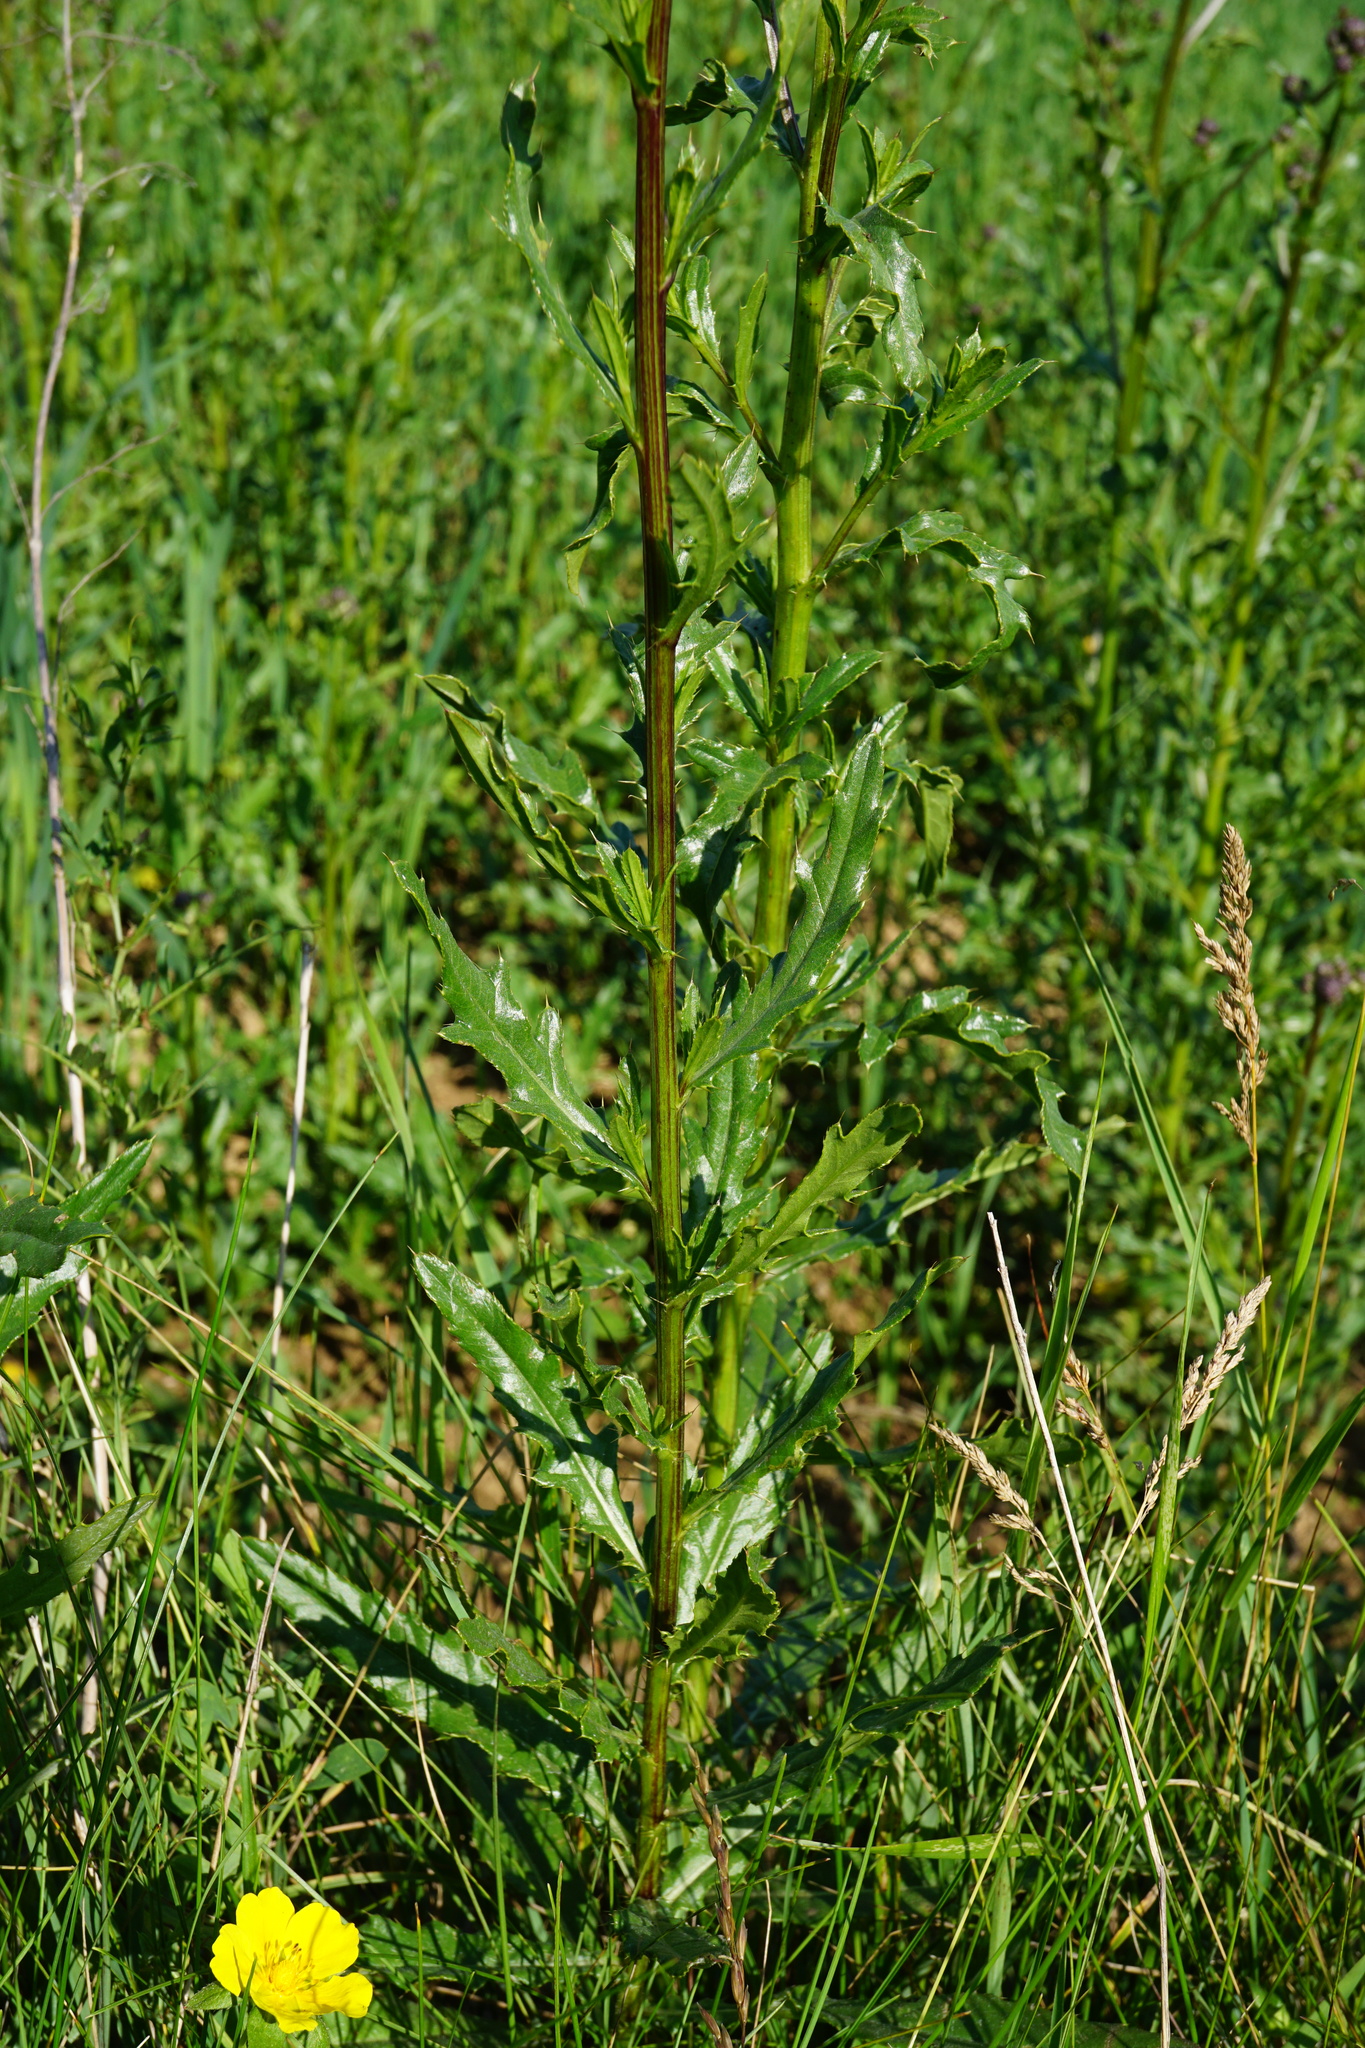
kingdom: Plantae
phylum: Tracheophyta
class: Magnoliopsida
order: Asterales
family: Asteraceae
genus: Cirsium
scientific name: Cirsium arvense
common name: Creeping thistle
